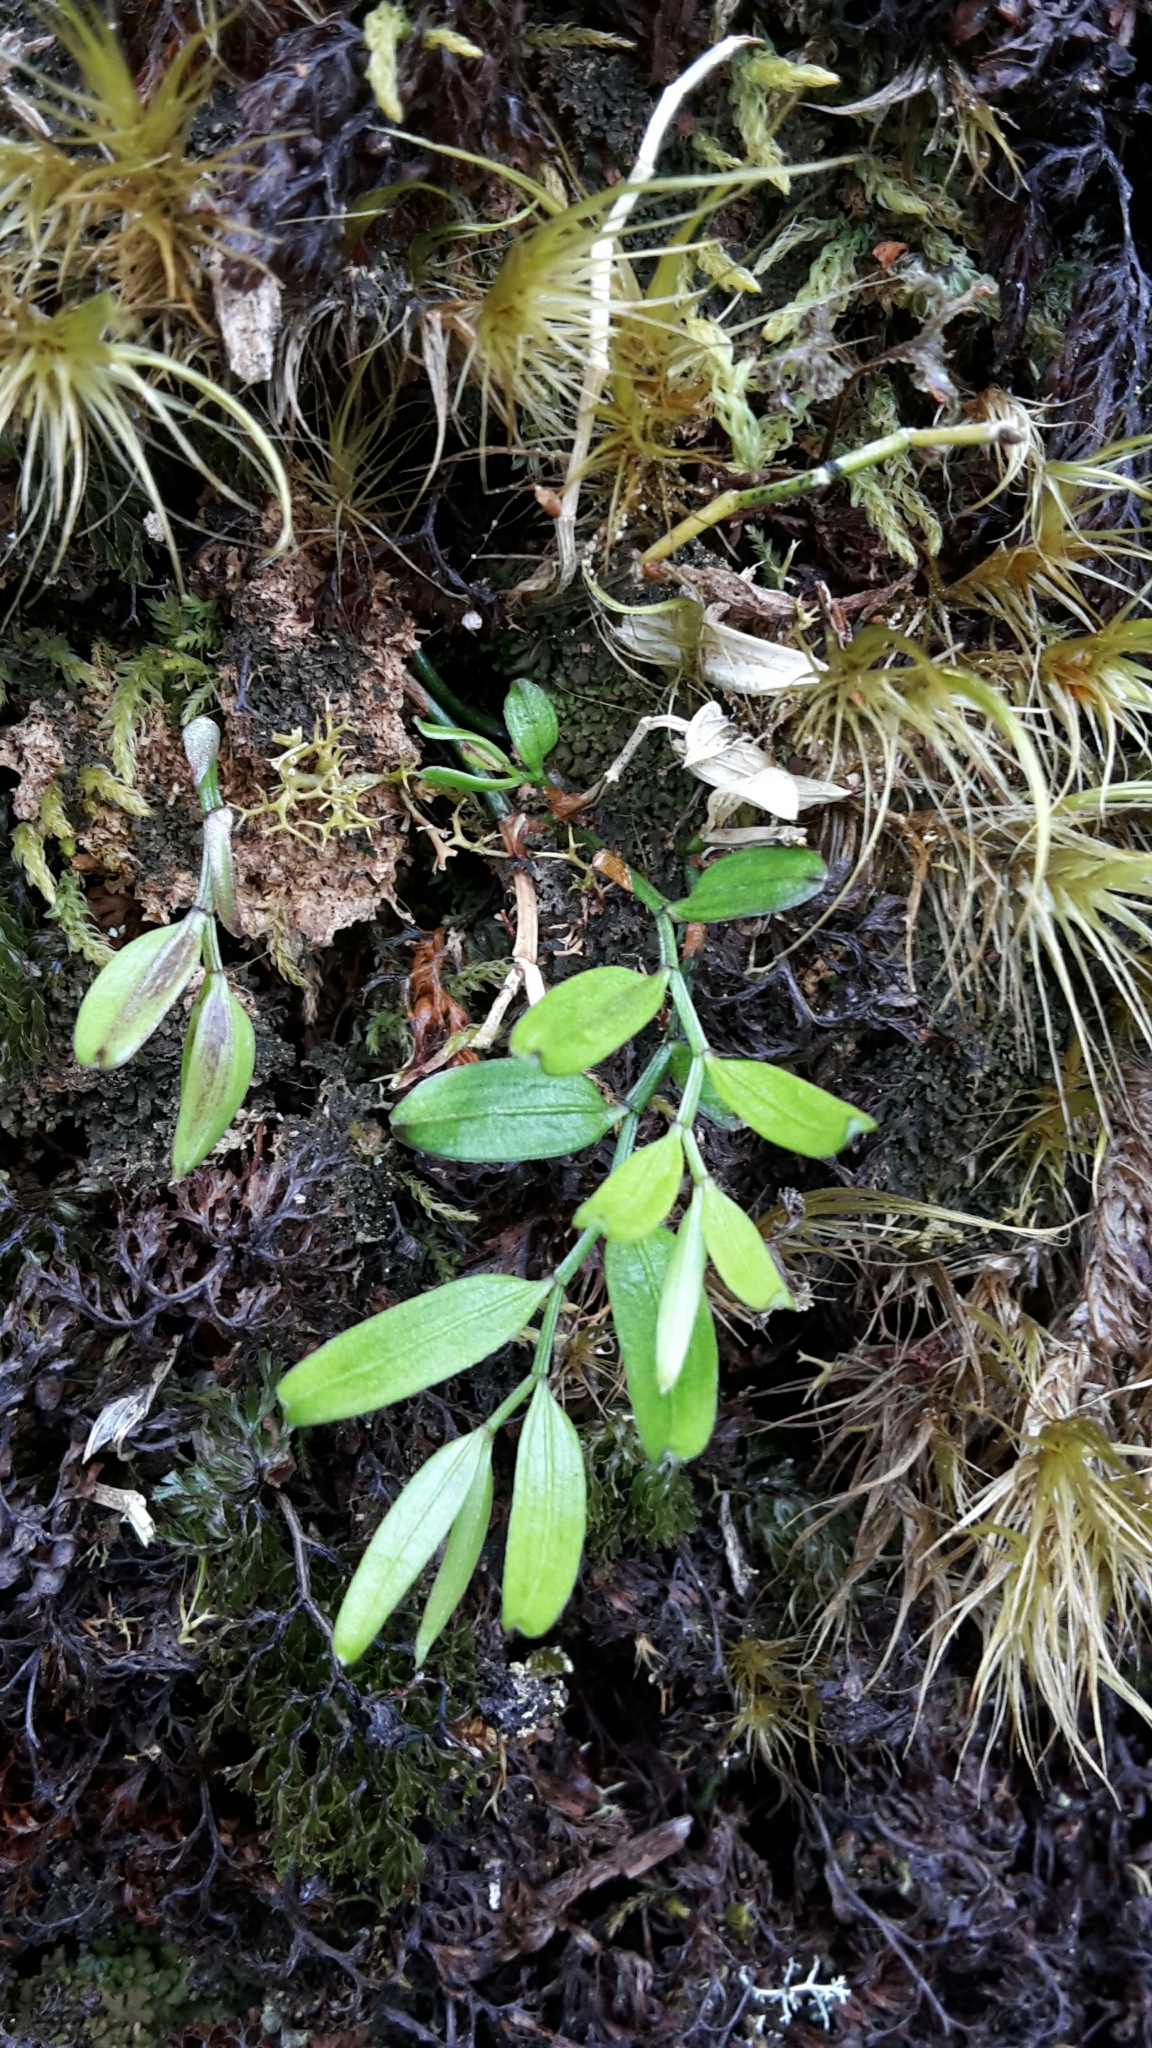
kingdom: Plantae
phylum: Tracheophyta
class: Liliopsida
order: Liliales
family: Alstroemeriaceae
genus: Luzuriaga
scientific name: Luzuriaga parviflora
